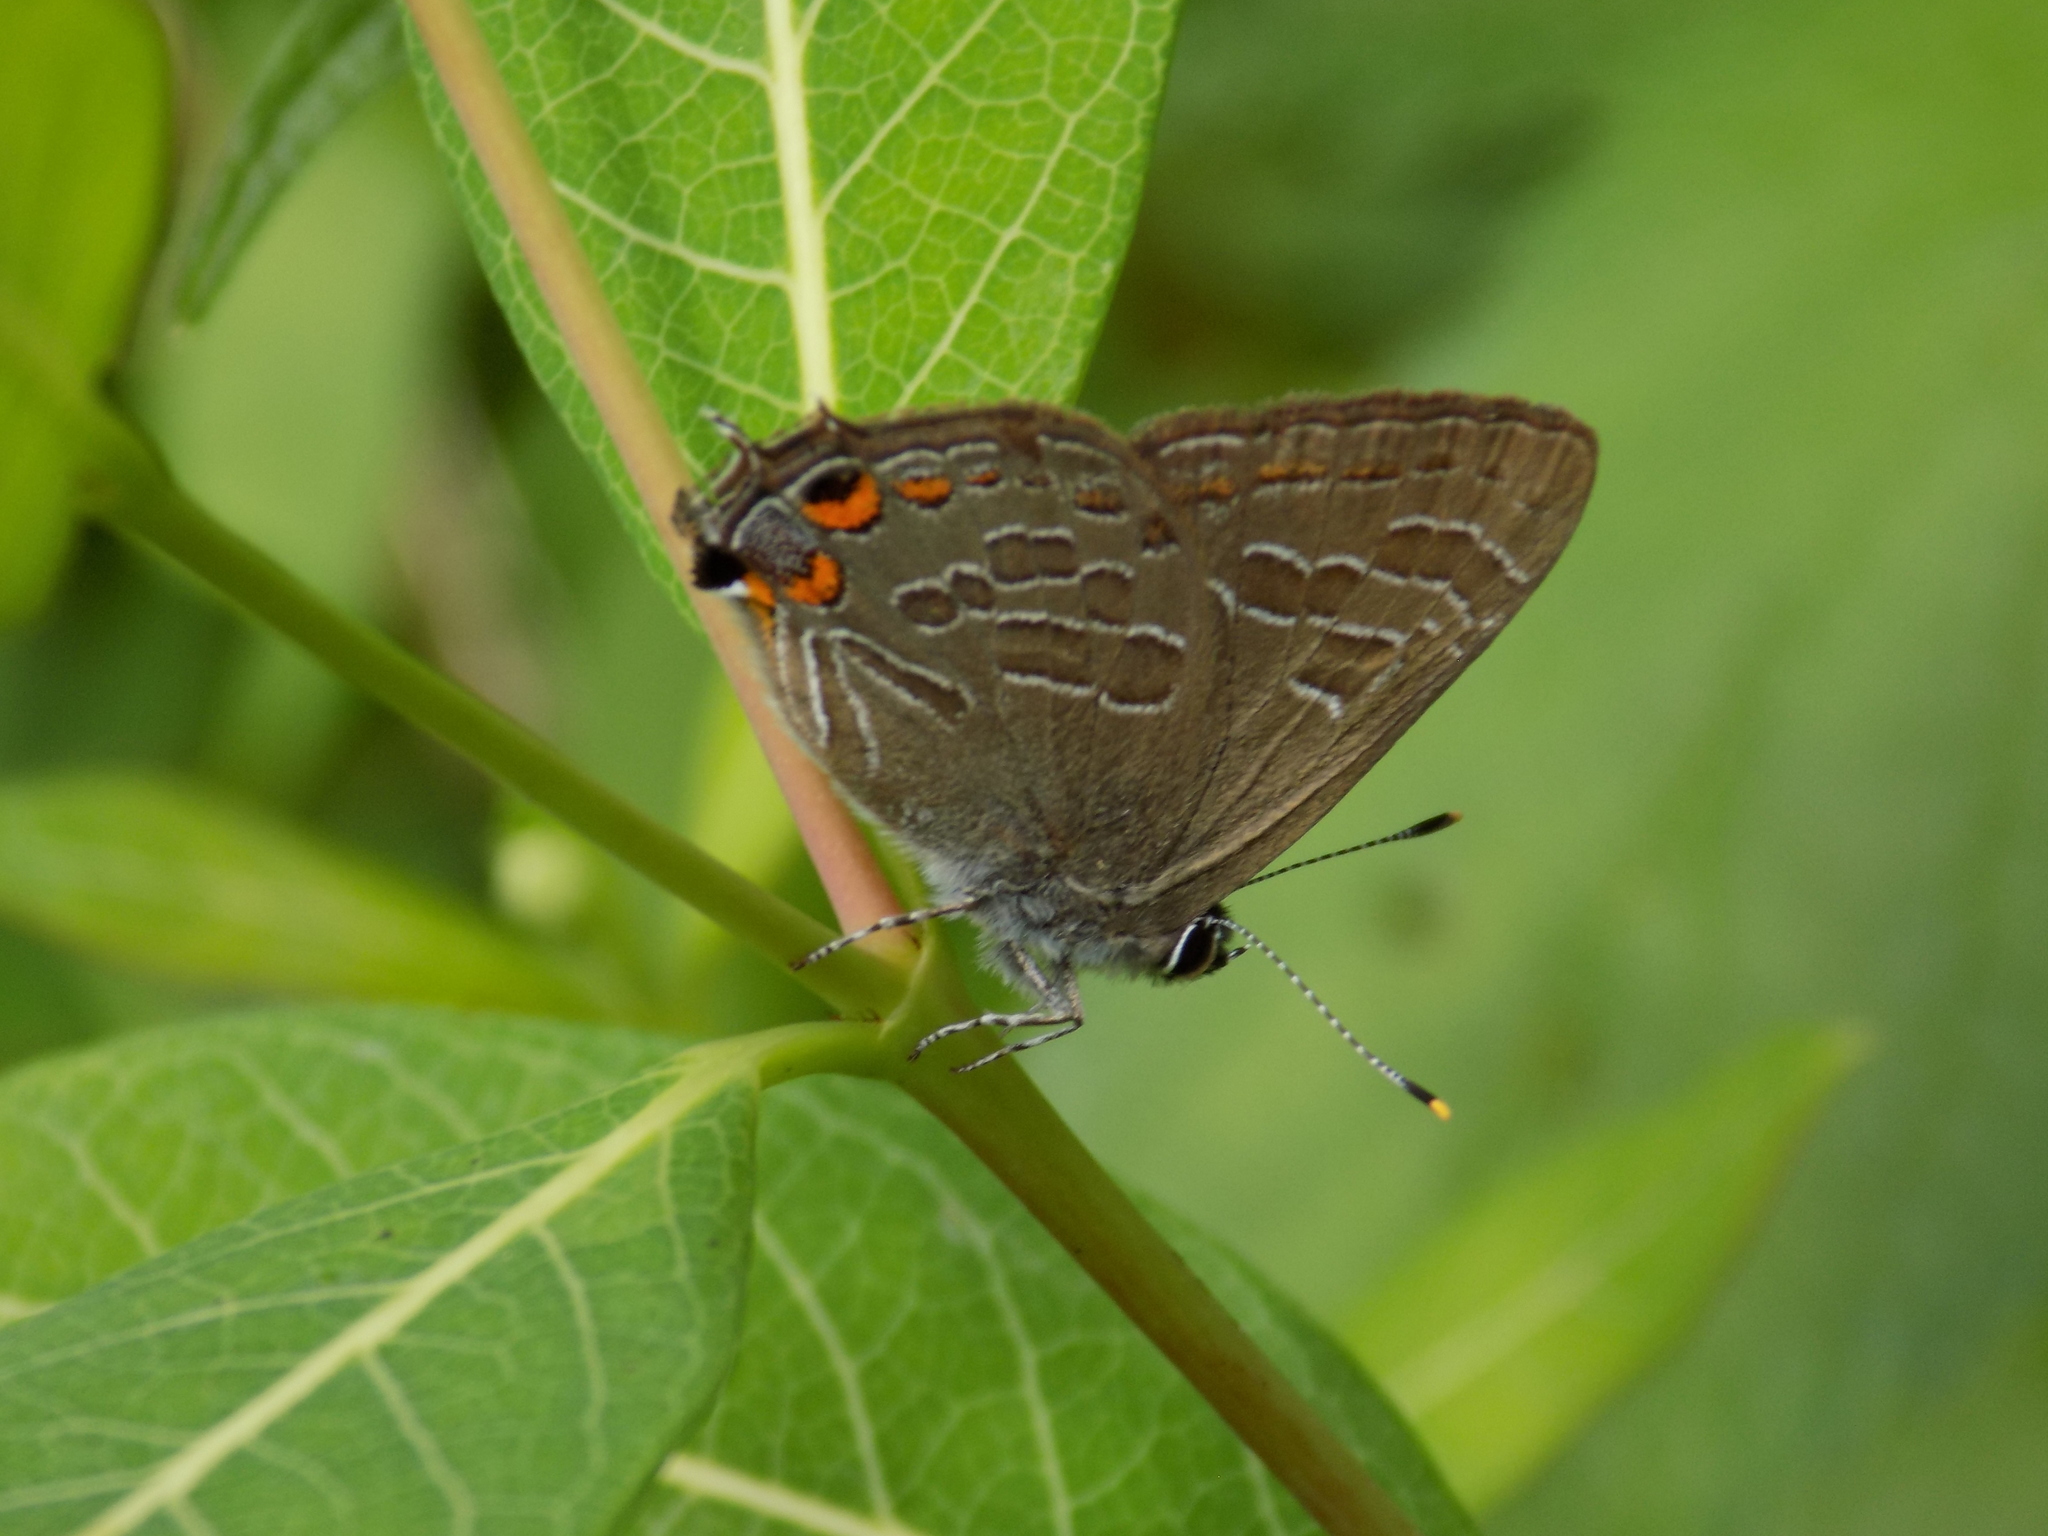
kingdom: Animalia
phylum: Arthropoda
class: Insecta
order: Lepidoptera
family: Lycaenidae
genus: Satyrium
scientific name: Satyrium liparops
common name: Striped hairstreak
